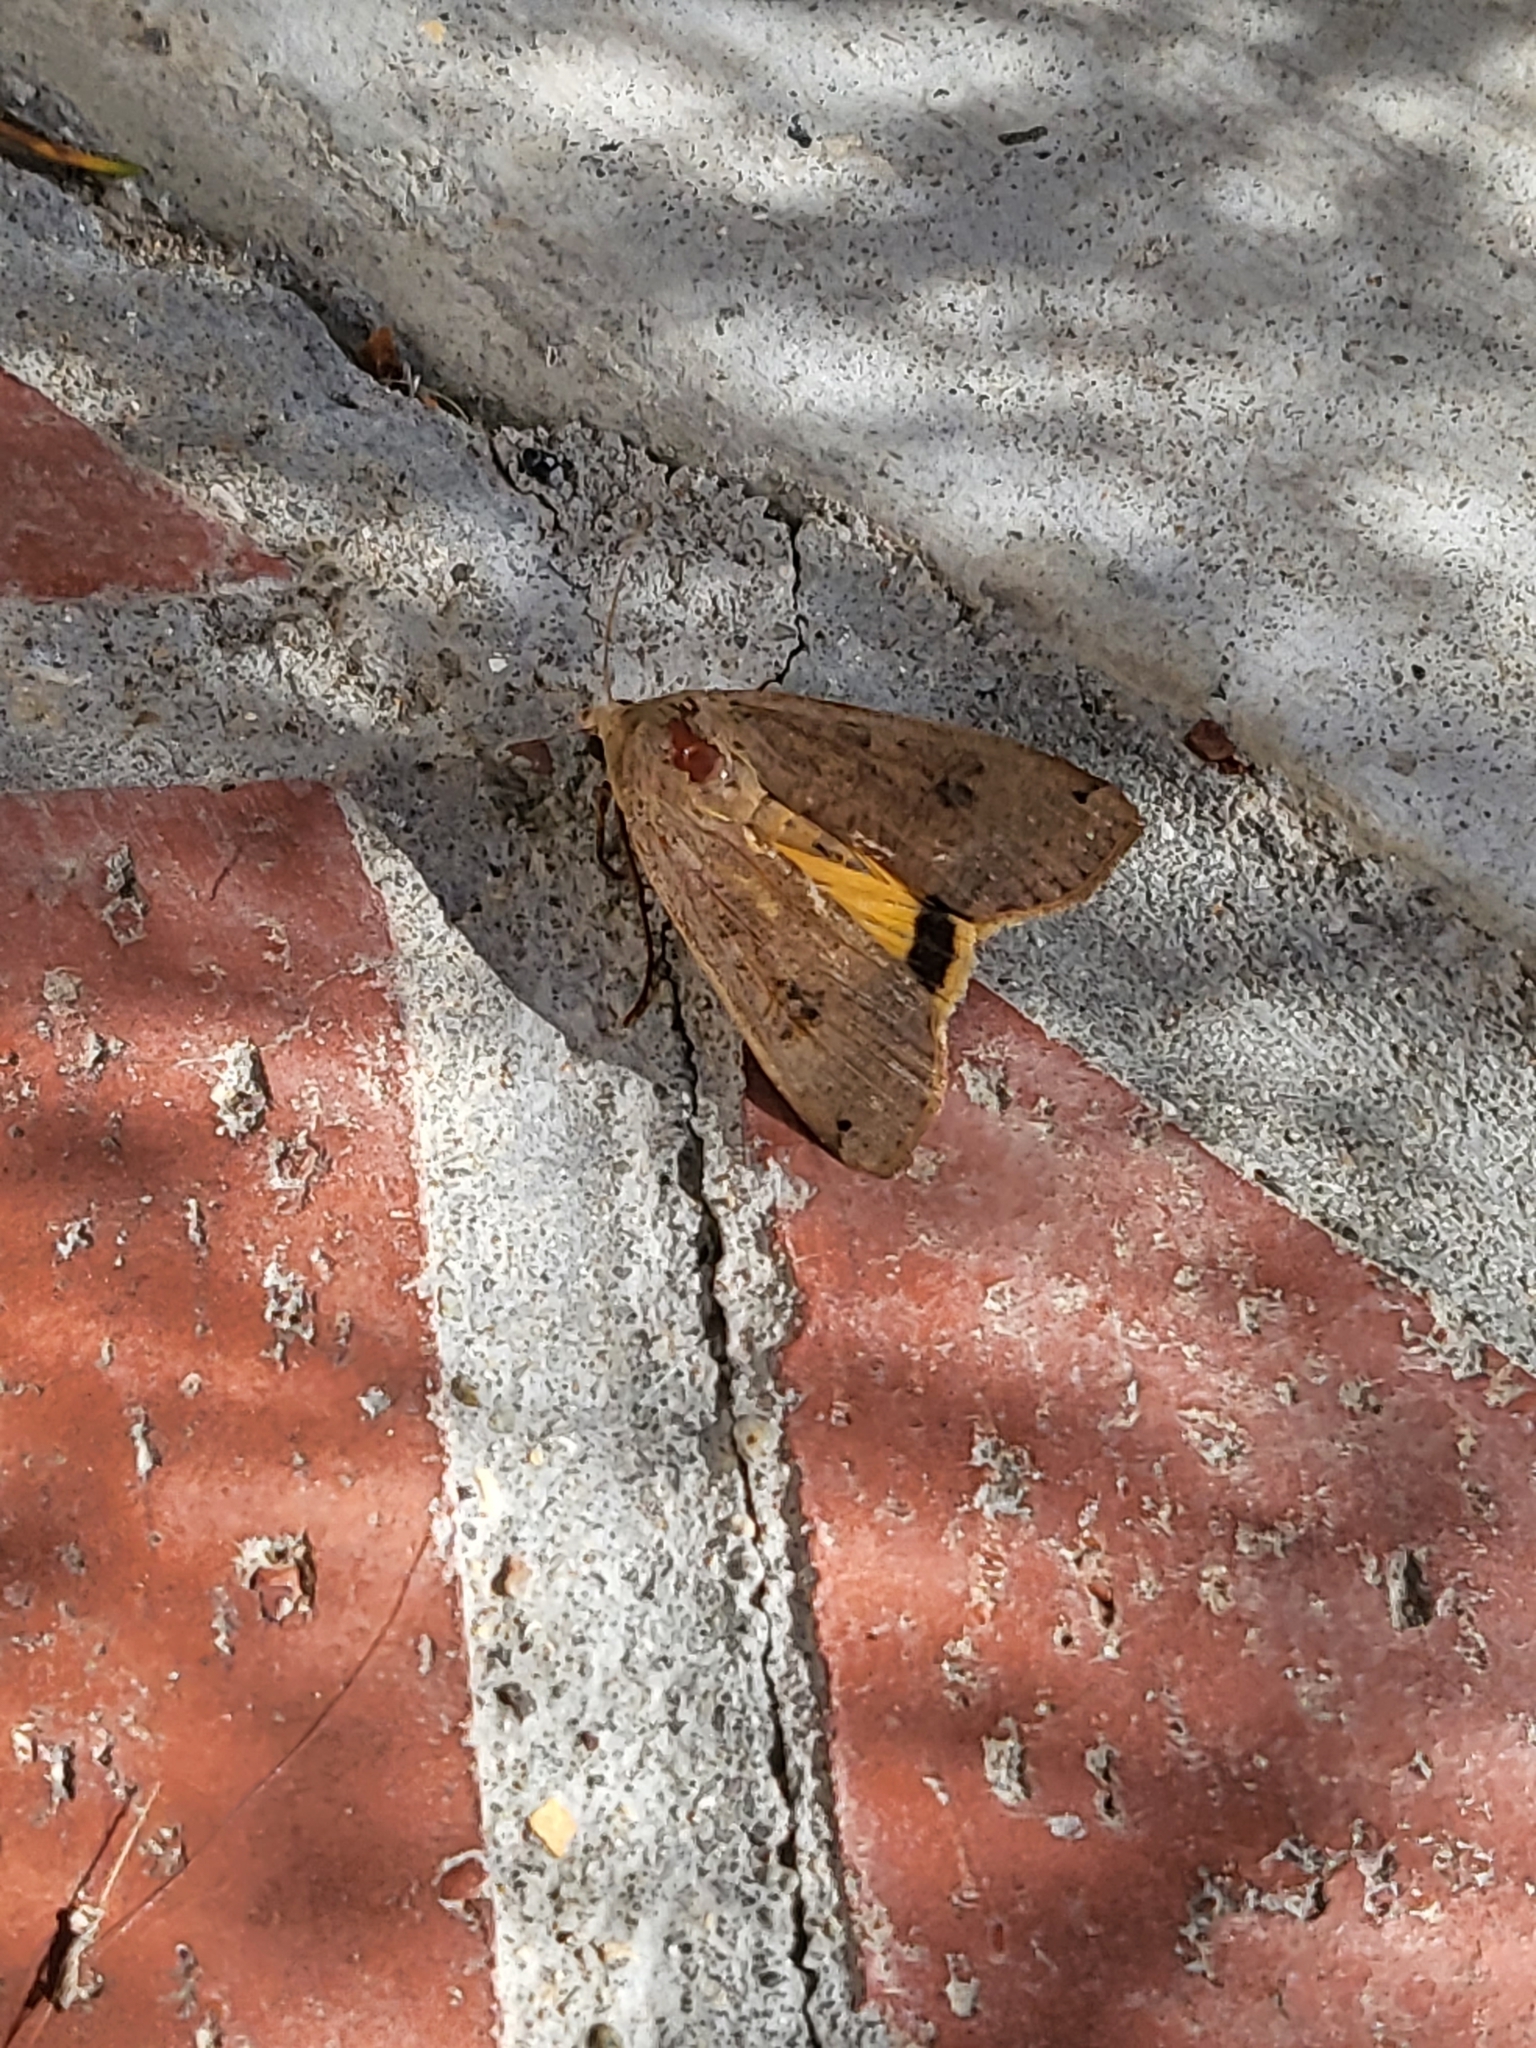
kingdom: Animalia
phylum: Arthropoda
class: Insecta
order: Lepidoptera
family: Noctuidae
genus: Noctua
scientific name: Noctua pronuba
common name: Large yellow underwing
